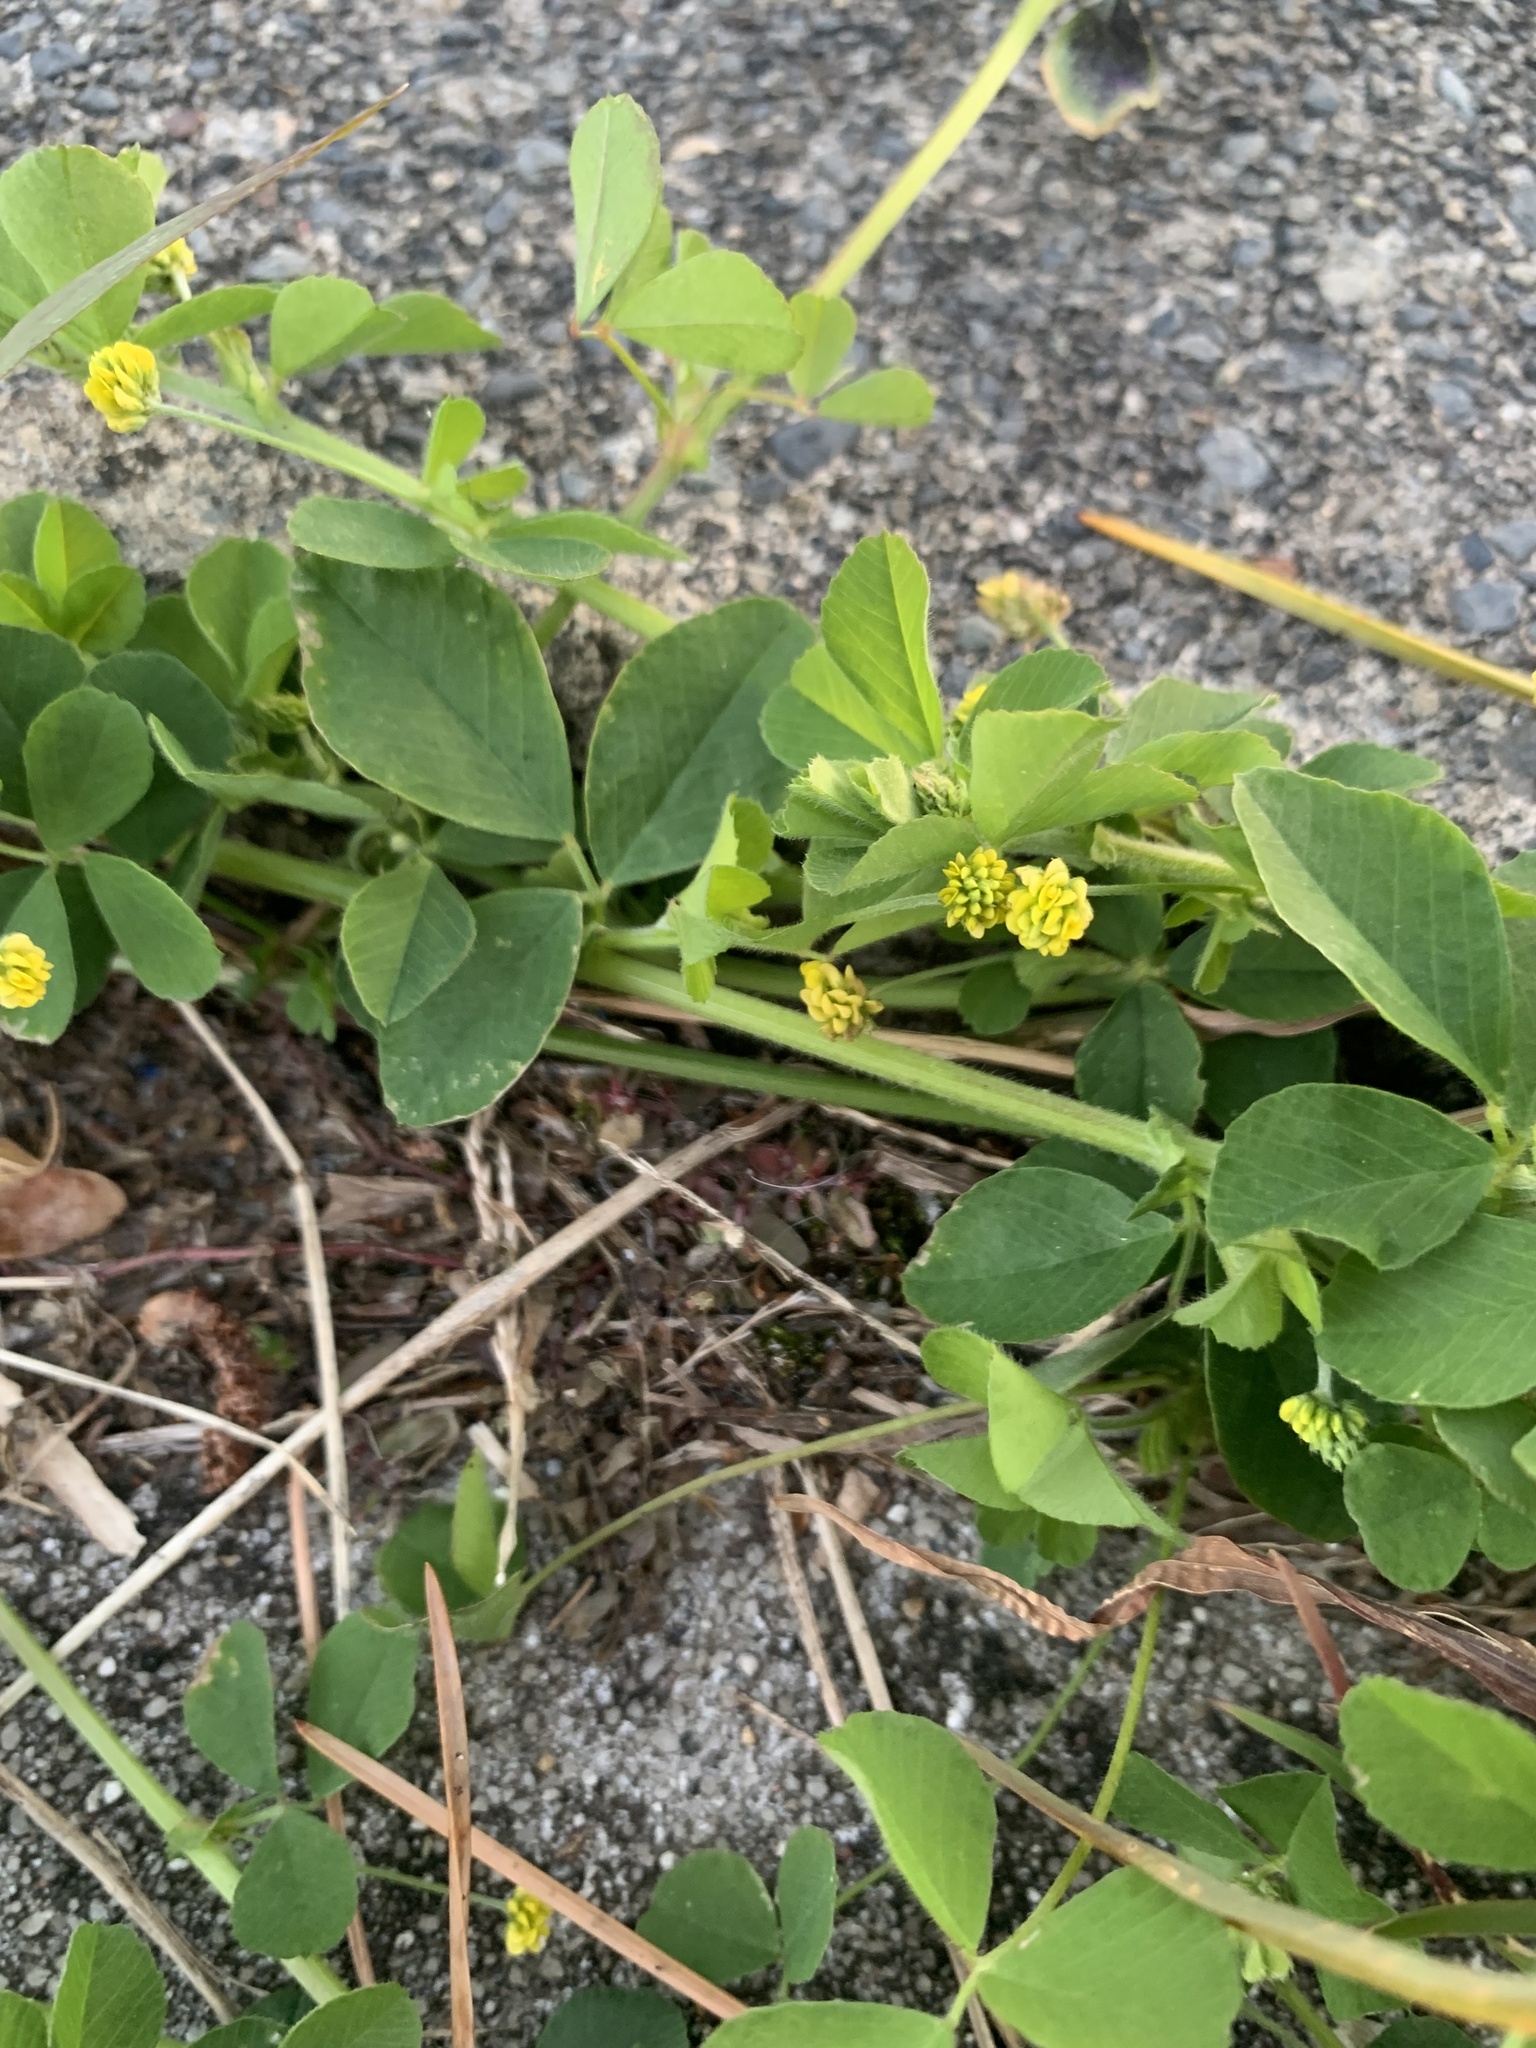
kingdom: Plantae
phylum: Tracheophyta
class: Magnoliopsida
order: Fabales
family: Fabaceae
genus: Medicago
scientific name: Medicago lupulina
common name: Black medick
